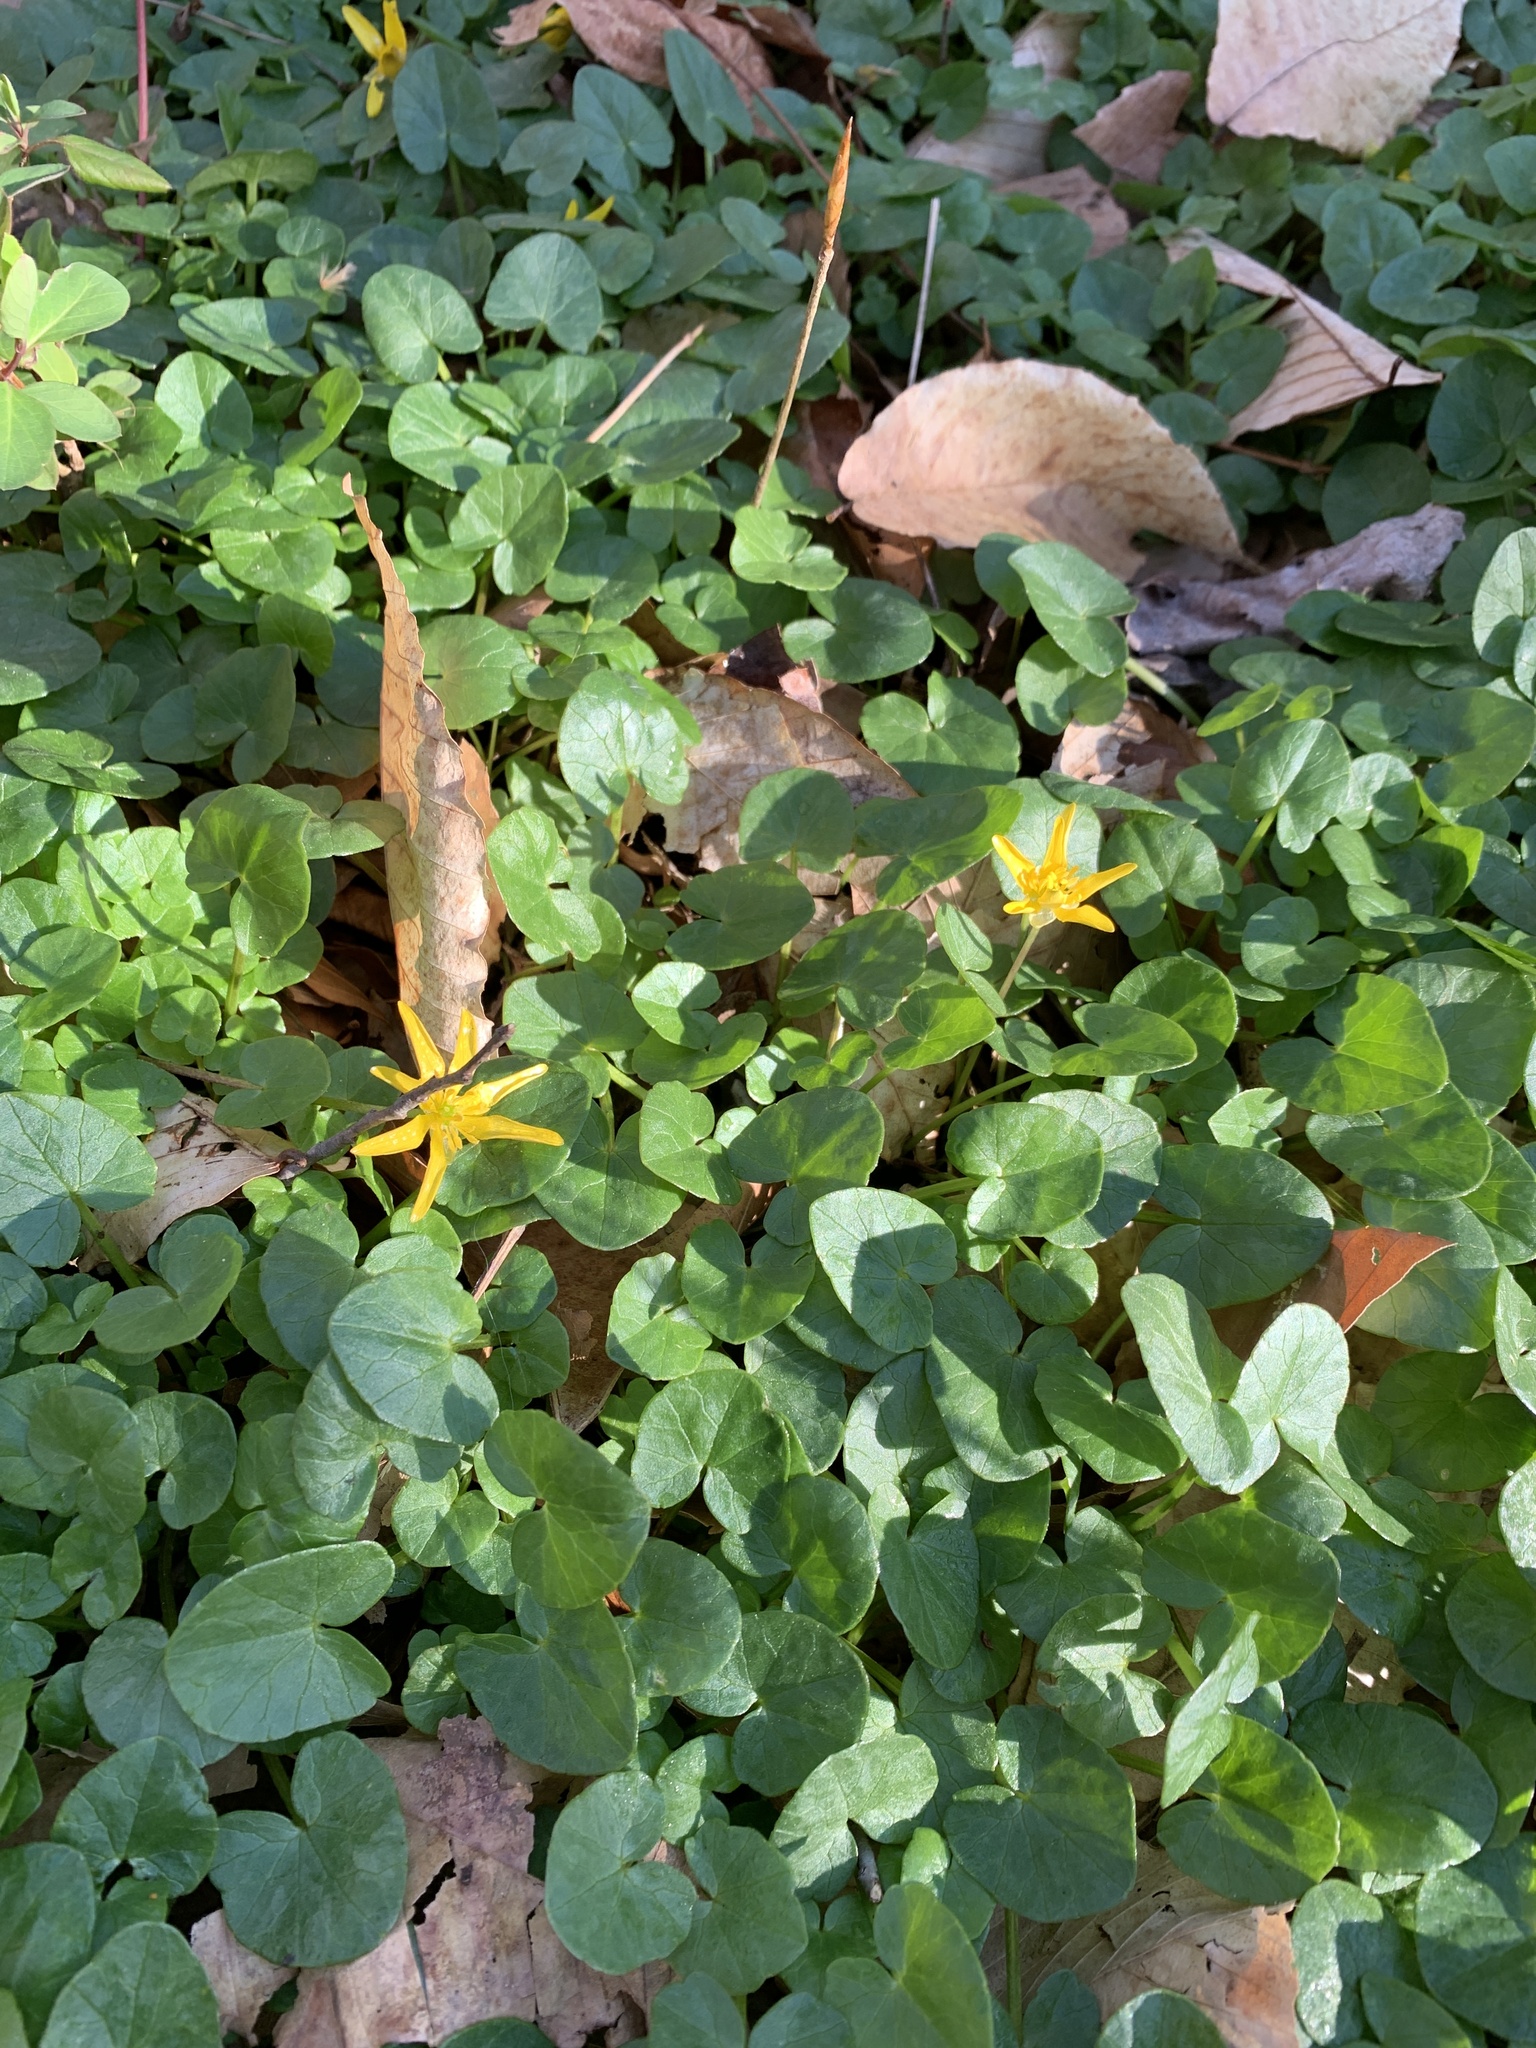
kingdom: Plantae
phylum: Tracheophyta
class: Magnoliopsida
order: Ranunculales
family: Ranunculaceae
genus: Ficaria
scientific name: Ficaria verna
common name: Lesser celandine
